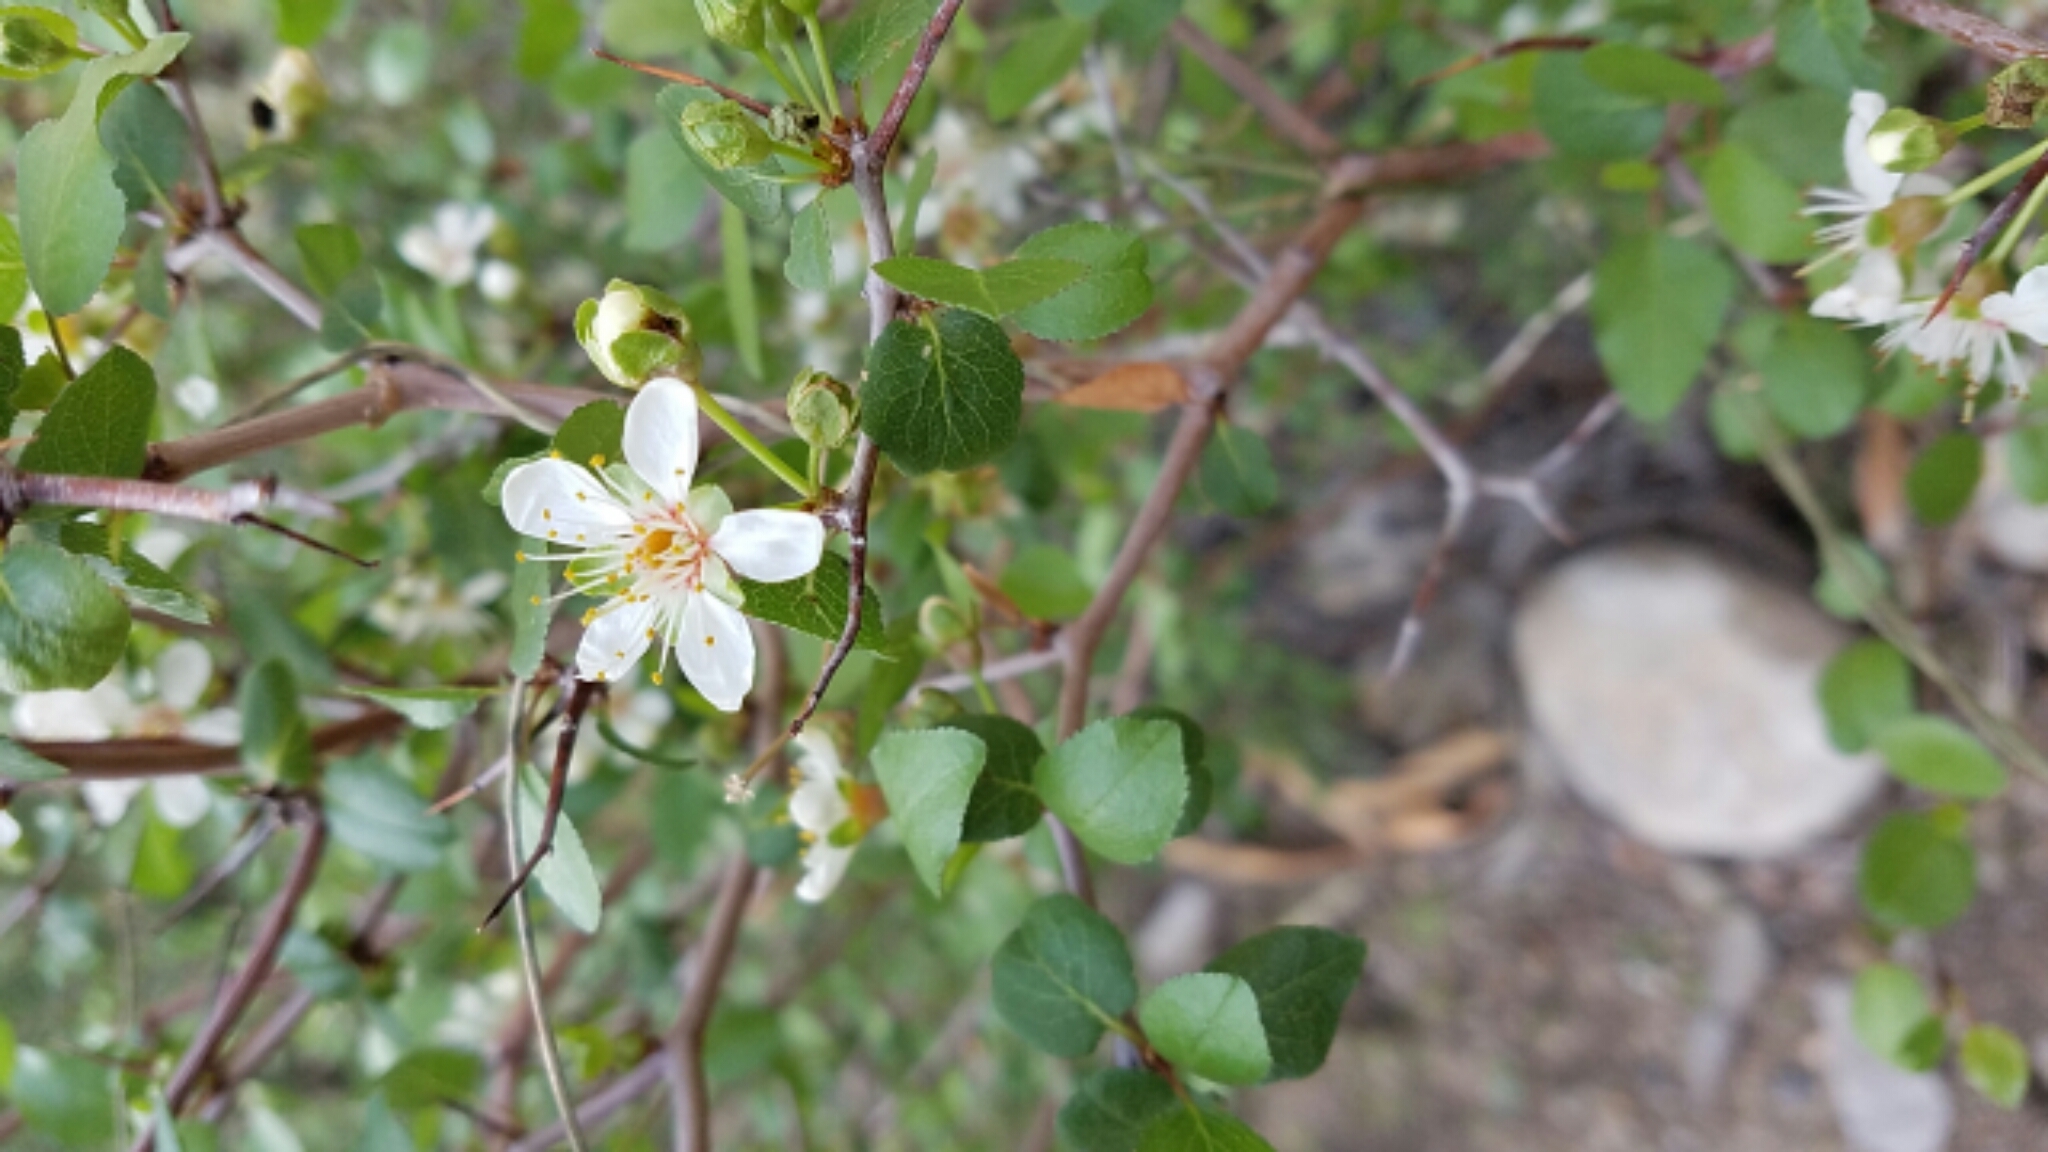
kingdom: Plantae
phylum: Tracheophyta
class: Magnoliopsida
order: Rosales
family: Rosaceae
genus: Prunus
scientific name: Prunus fremontii
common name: Desert apricot
